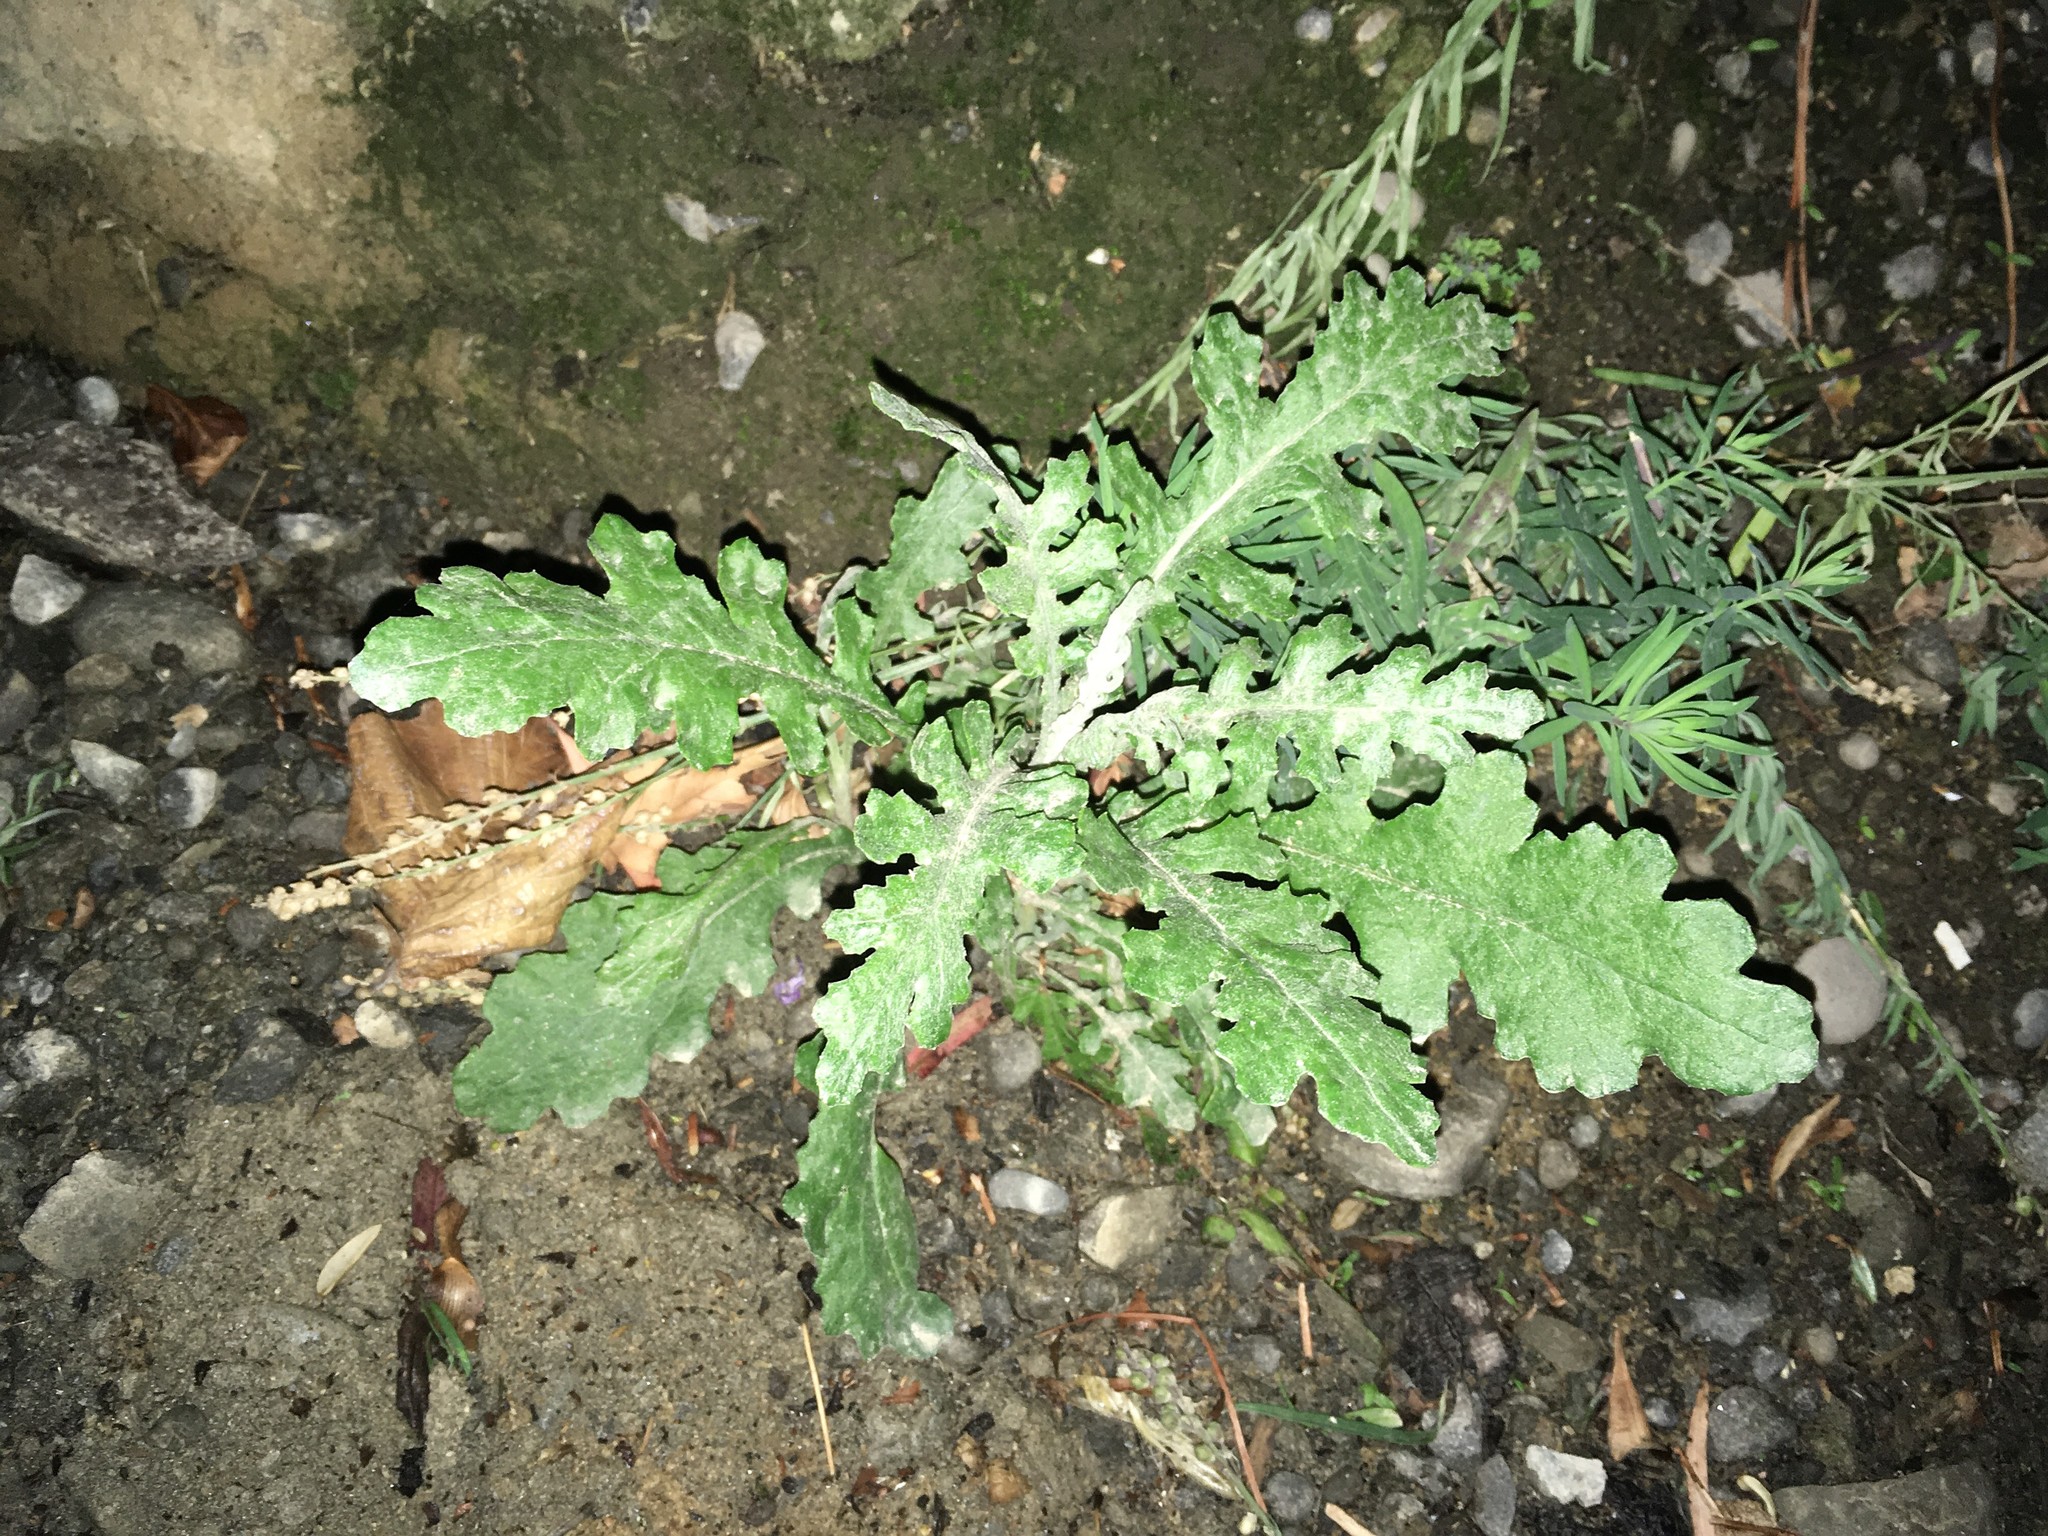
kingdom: Plantae
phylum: Tracheophyta
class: Magnoliopsida
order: Asterales
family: Asteraceae
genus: Senecio
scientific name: Senecio glomeratus
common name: Cutleaf burnweed
